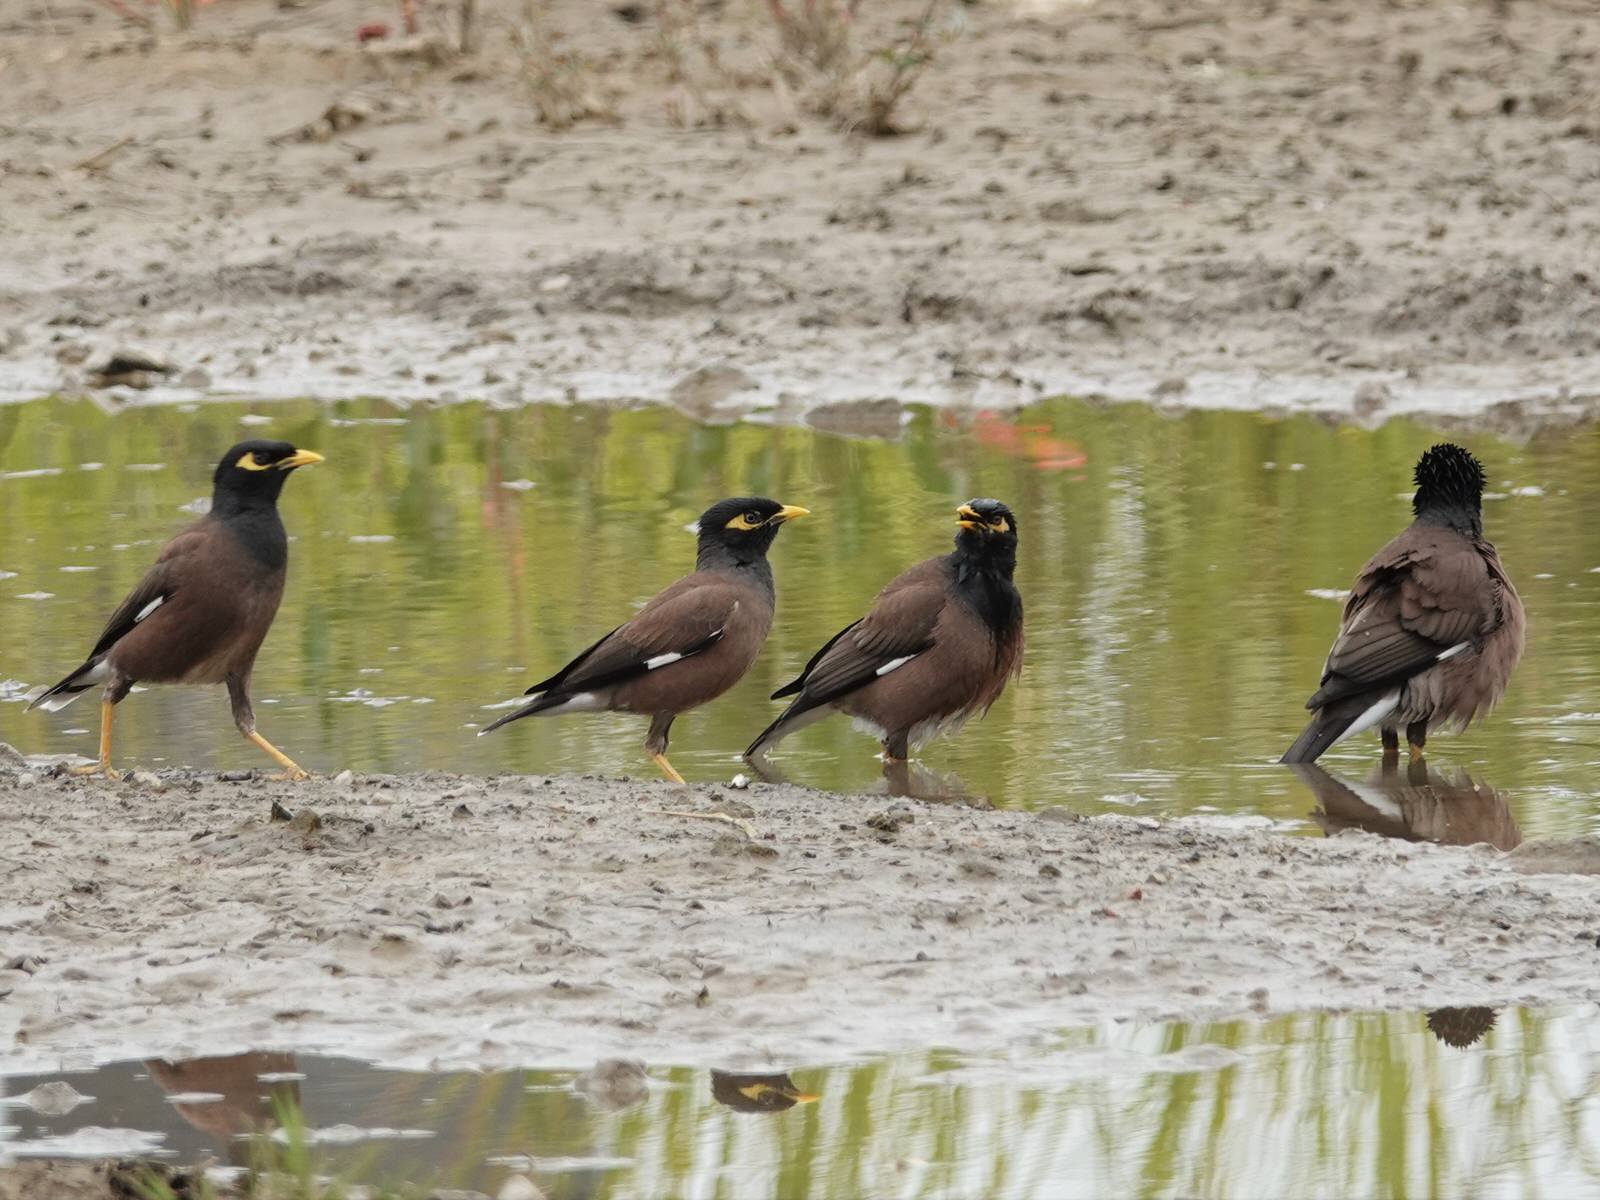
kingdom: Animalia
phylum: Chordata
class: Aves
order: Passeriformes
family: Sturnidae
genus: Acridotheres
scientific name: Acridotheres tristis
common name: Common myna
